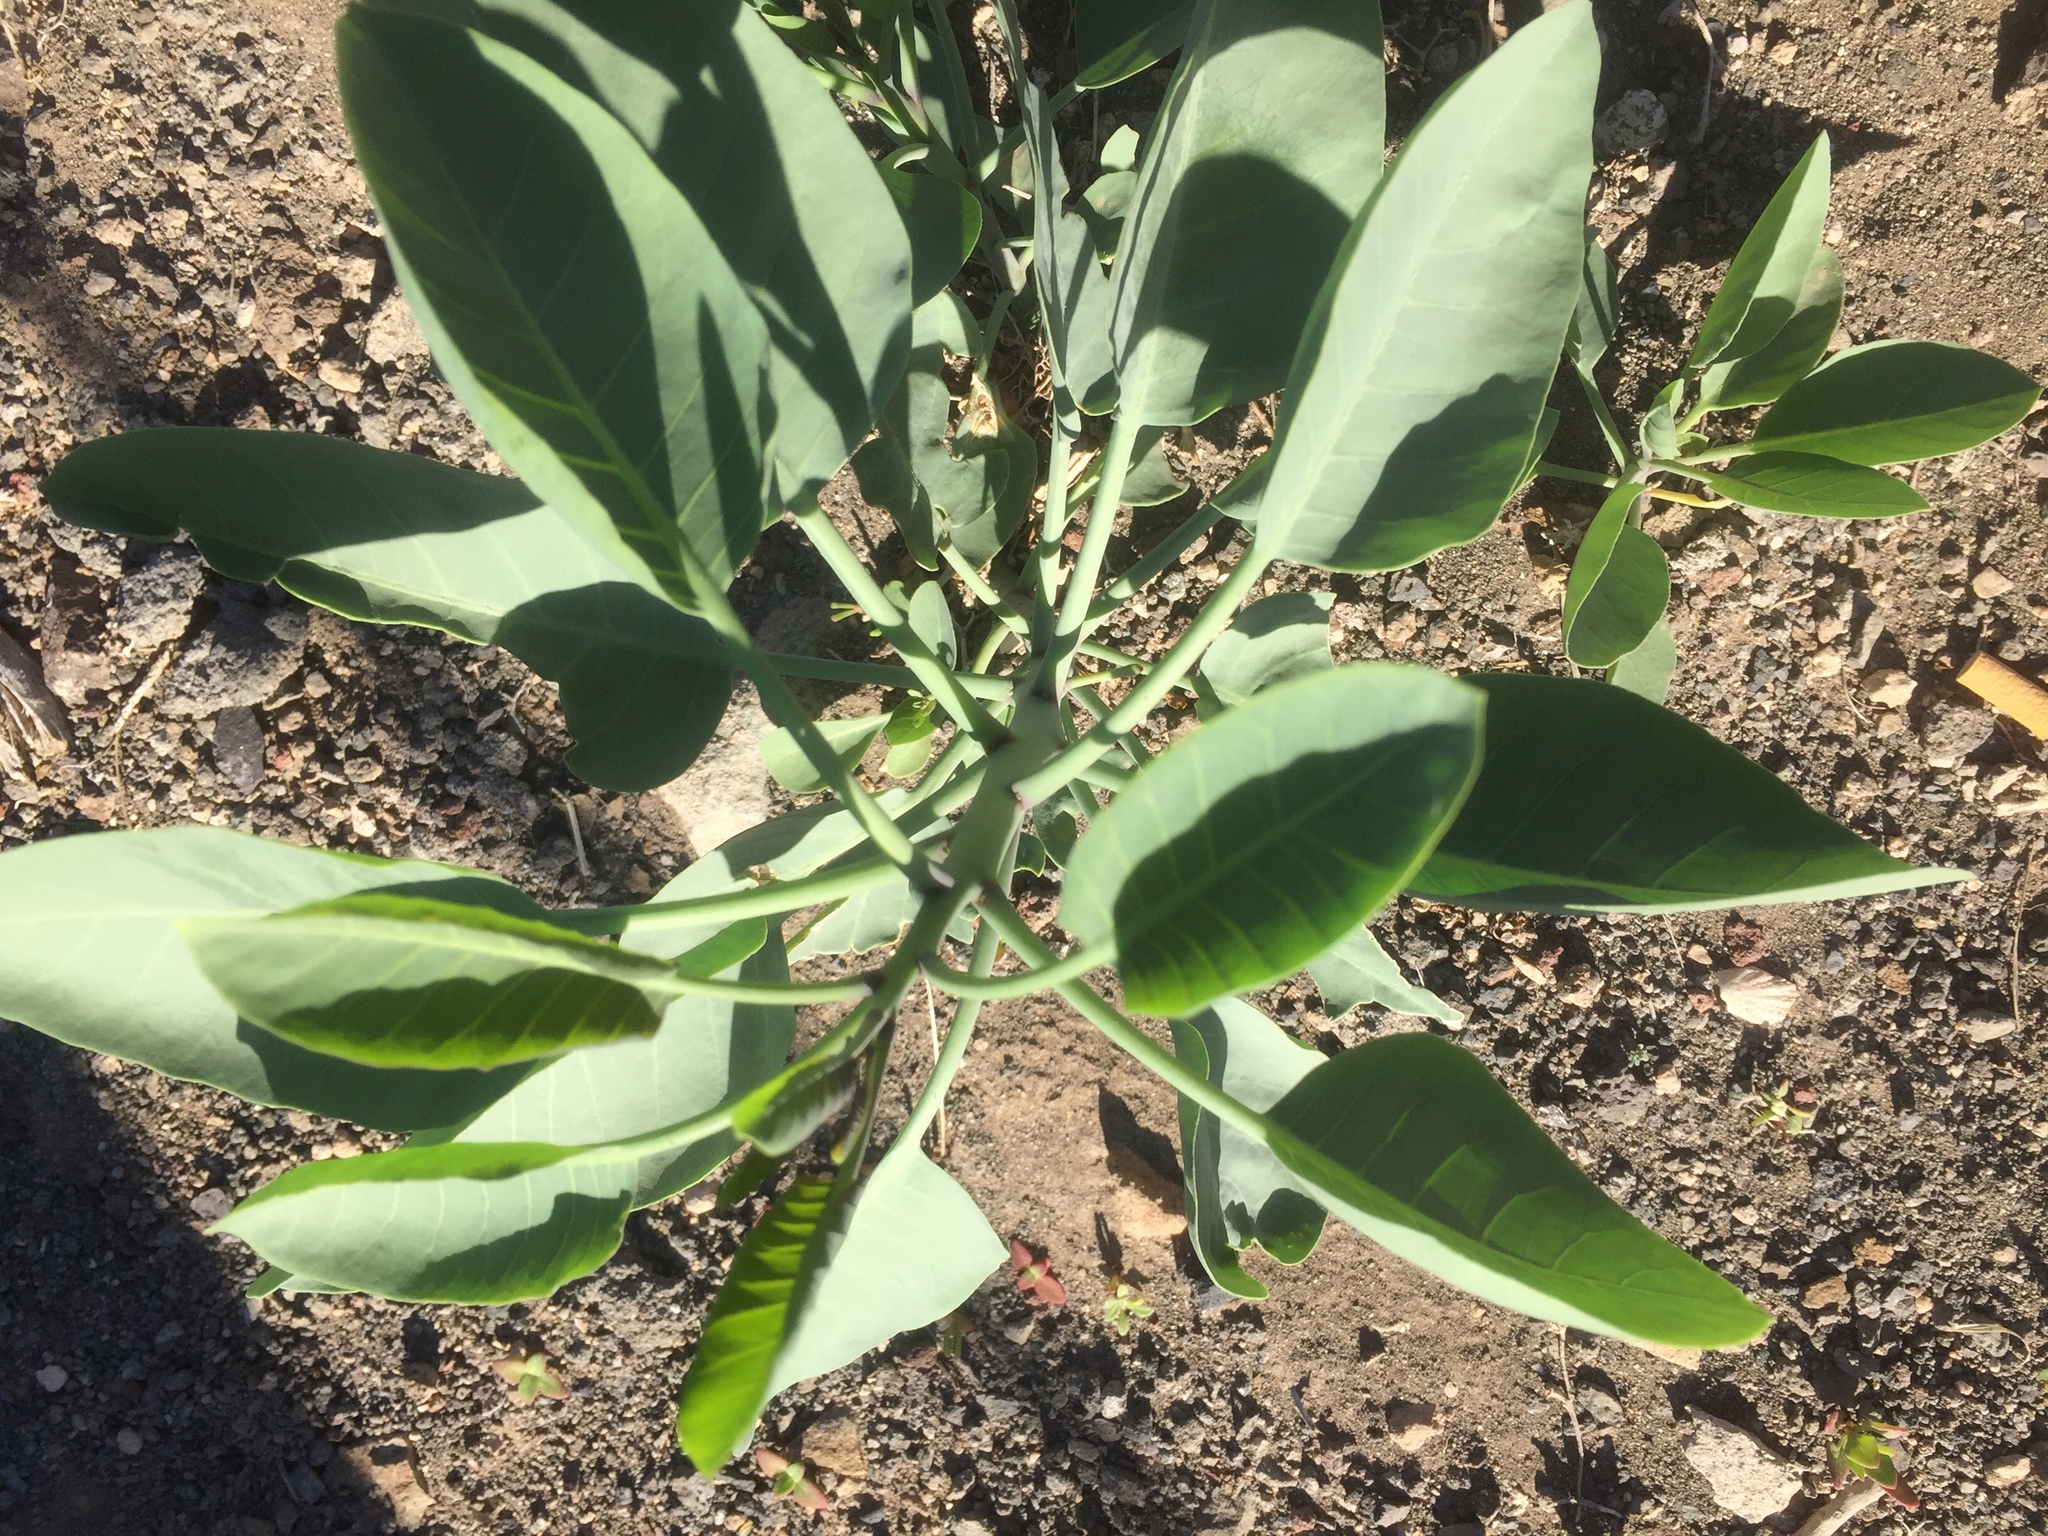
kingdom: Plantae
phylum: Tracheophyta
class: Magnoliopsida
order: Solanales
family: Solanaceae
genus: Nicotiana
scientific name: Nicotiana glauca
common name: Tree tobacco
